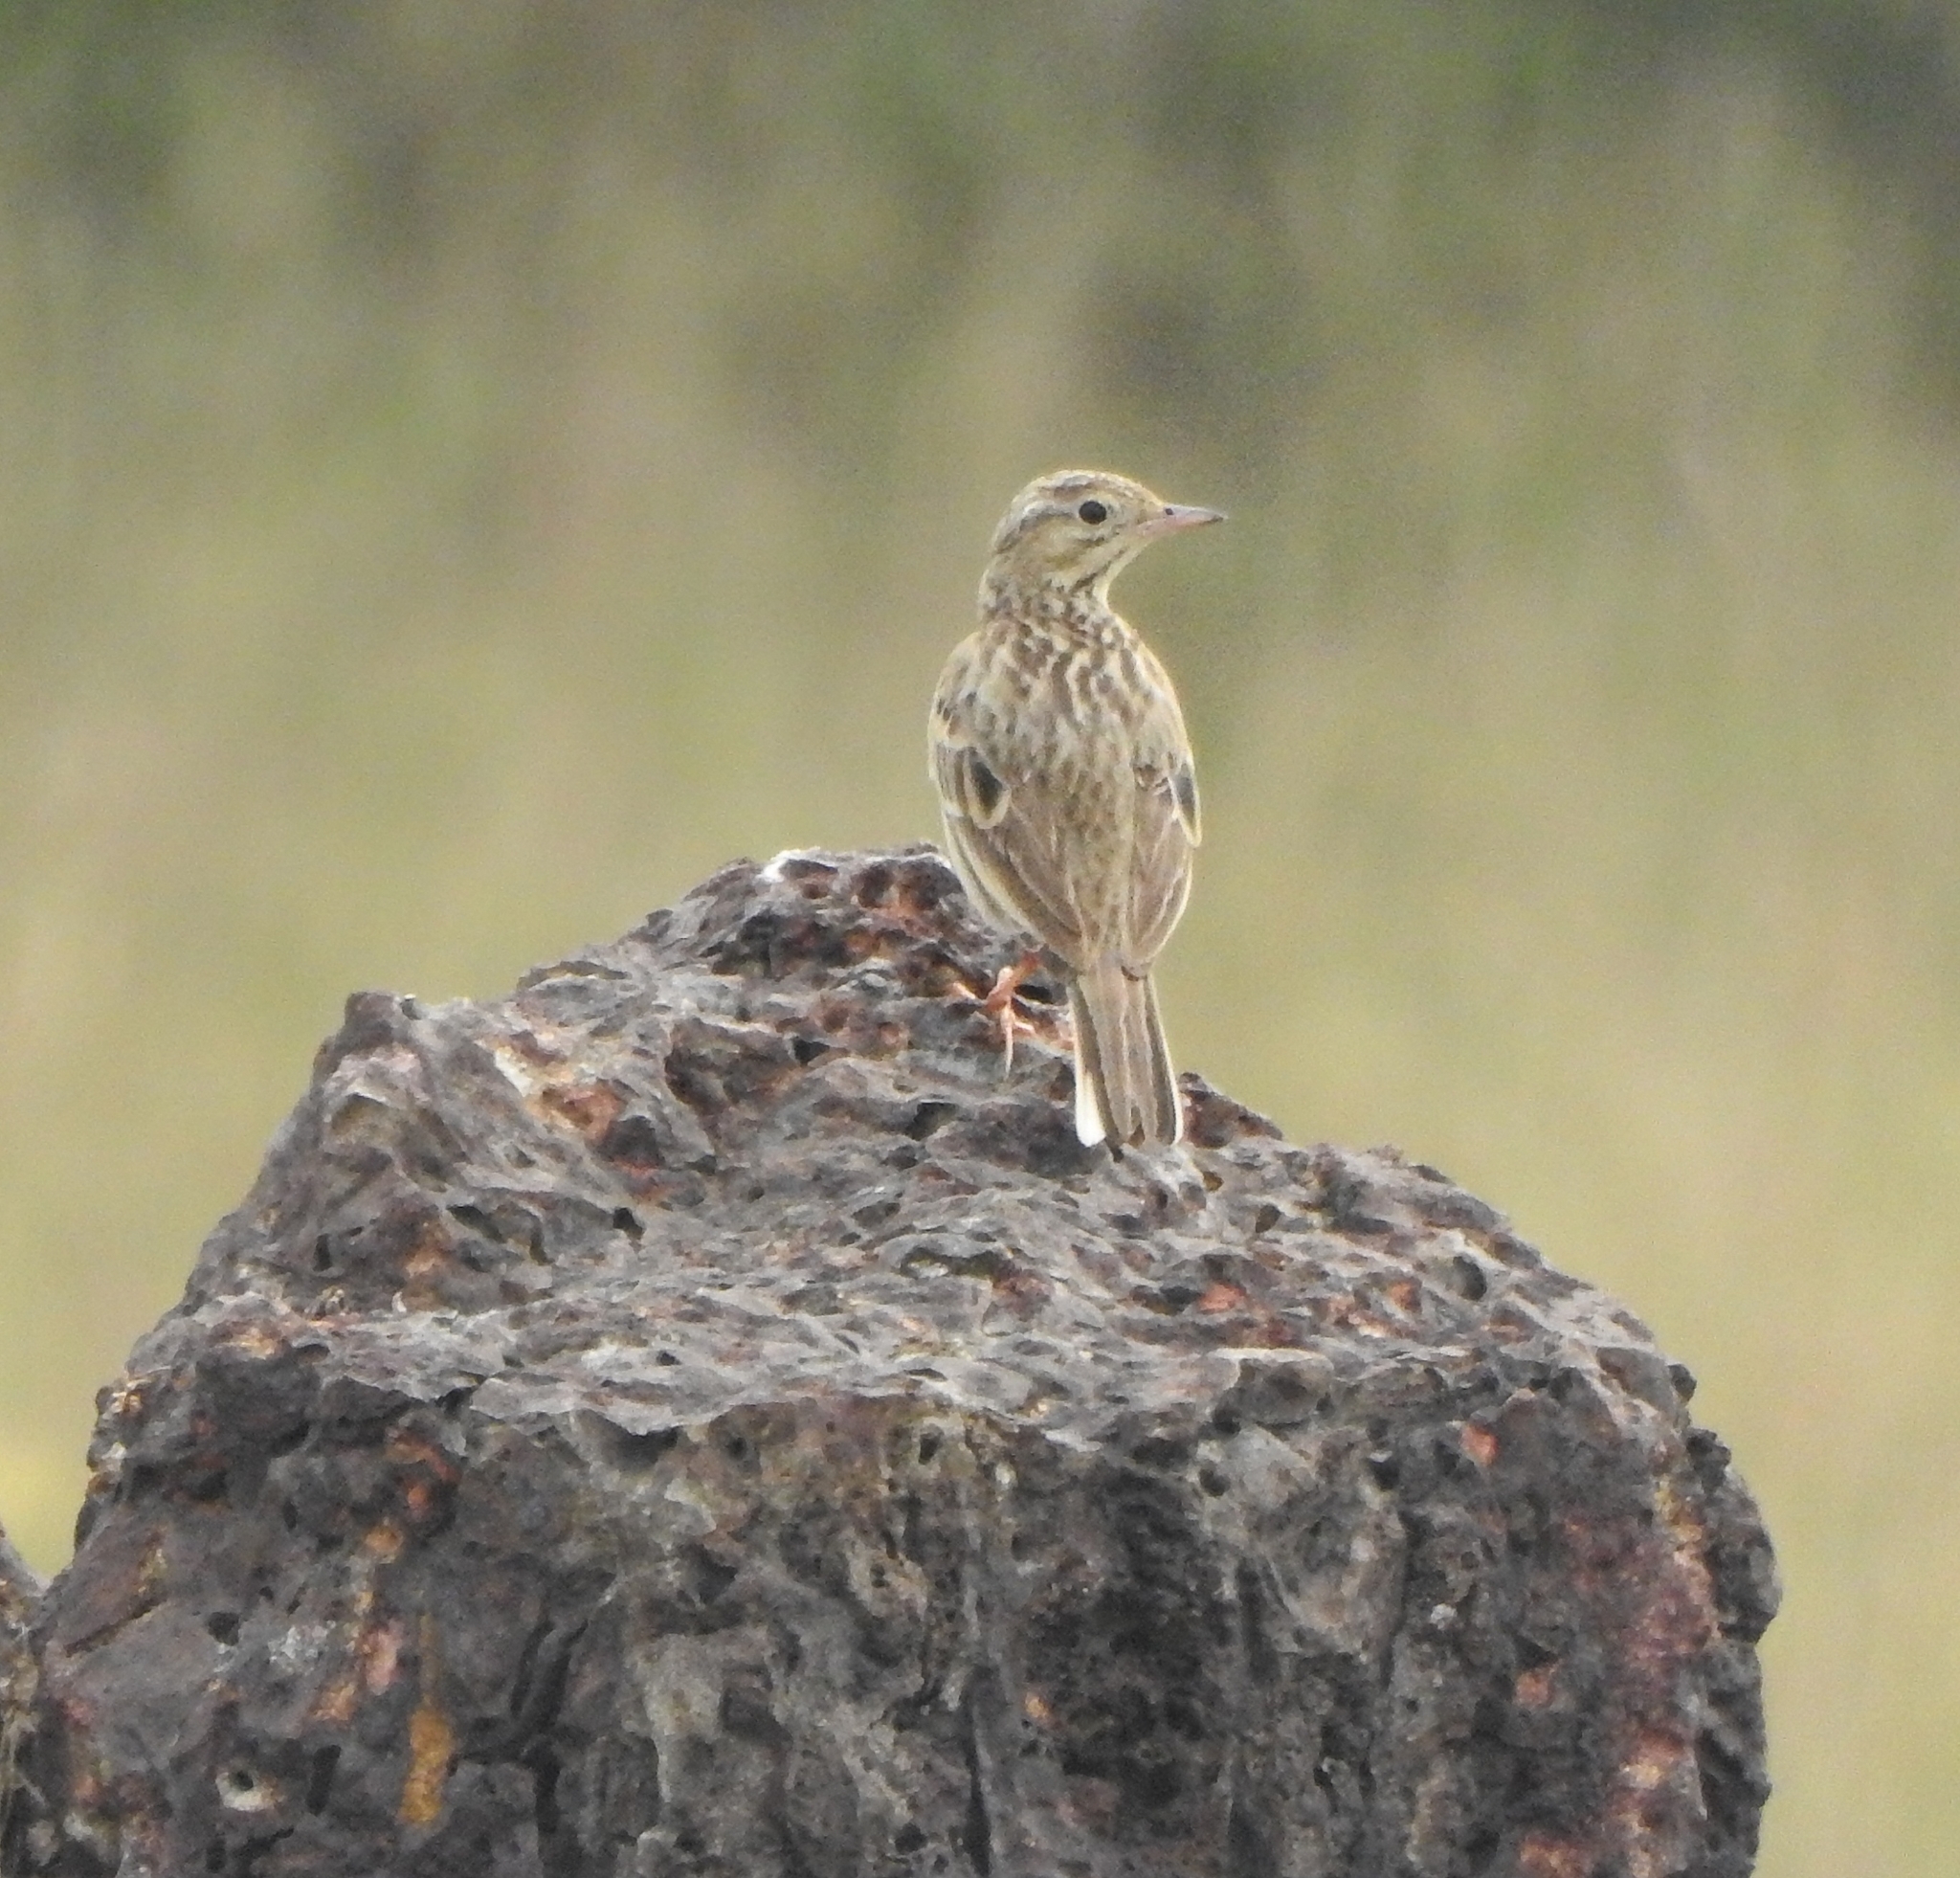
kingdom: Animalia
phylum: Chordata
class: Aves
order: Passeriformes
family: Motacillidae
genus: Anthus
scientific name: Anthus godlewskii
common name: Blyth's pipit
